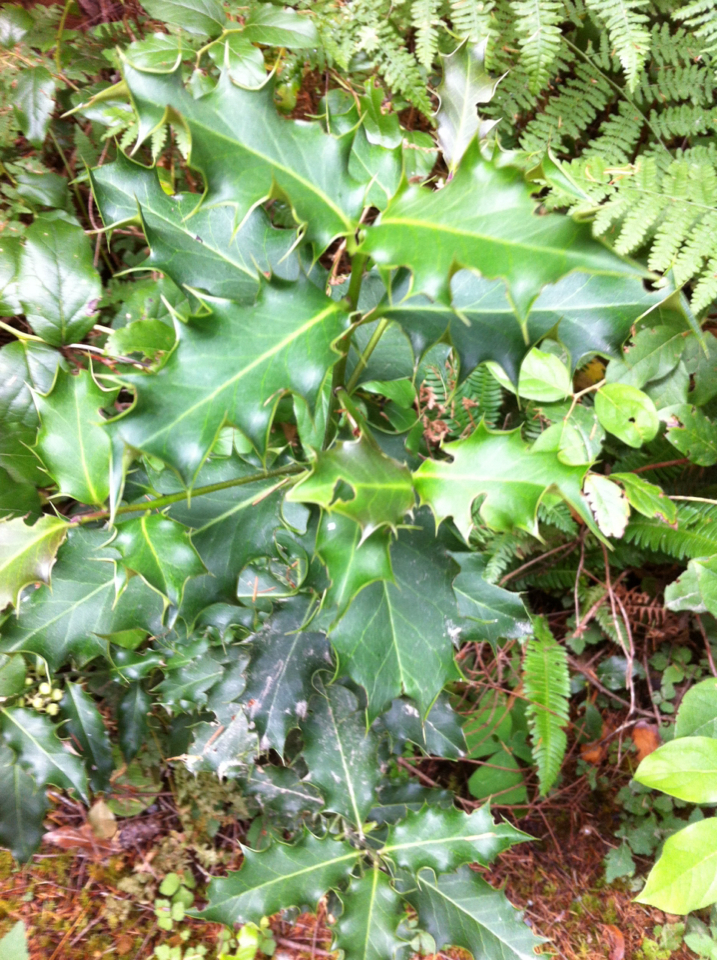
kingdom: Plantae
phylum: Tracheophyta
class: Magnoliopsida
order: Aquifoliales
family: Aquifoliaceae
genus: Ilex
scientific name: Ilex aquifolium
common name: English holly
